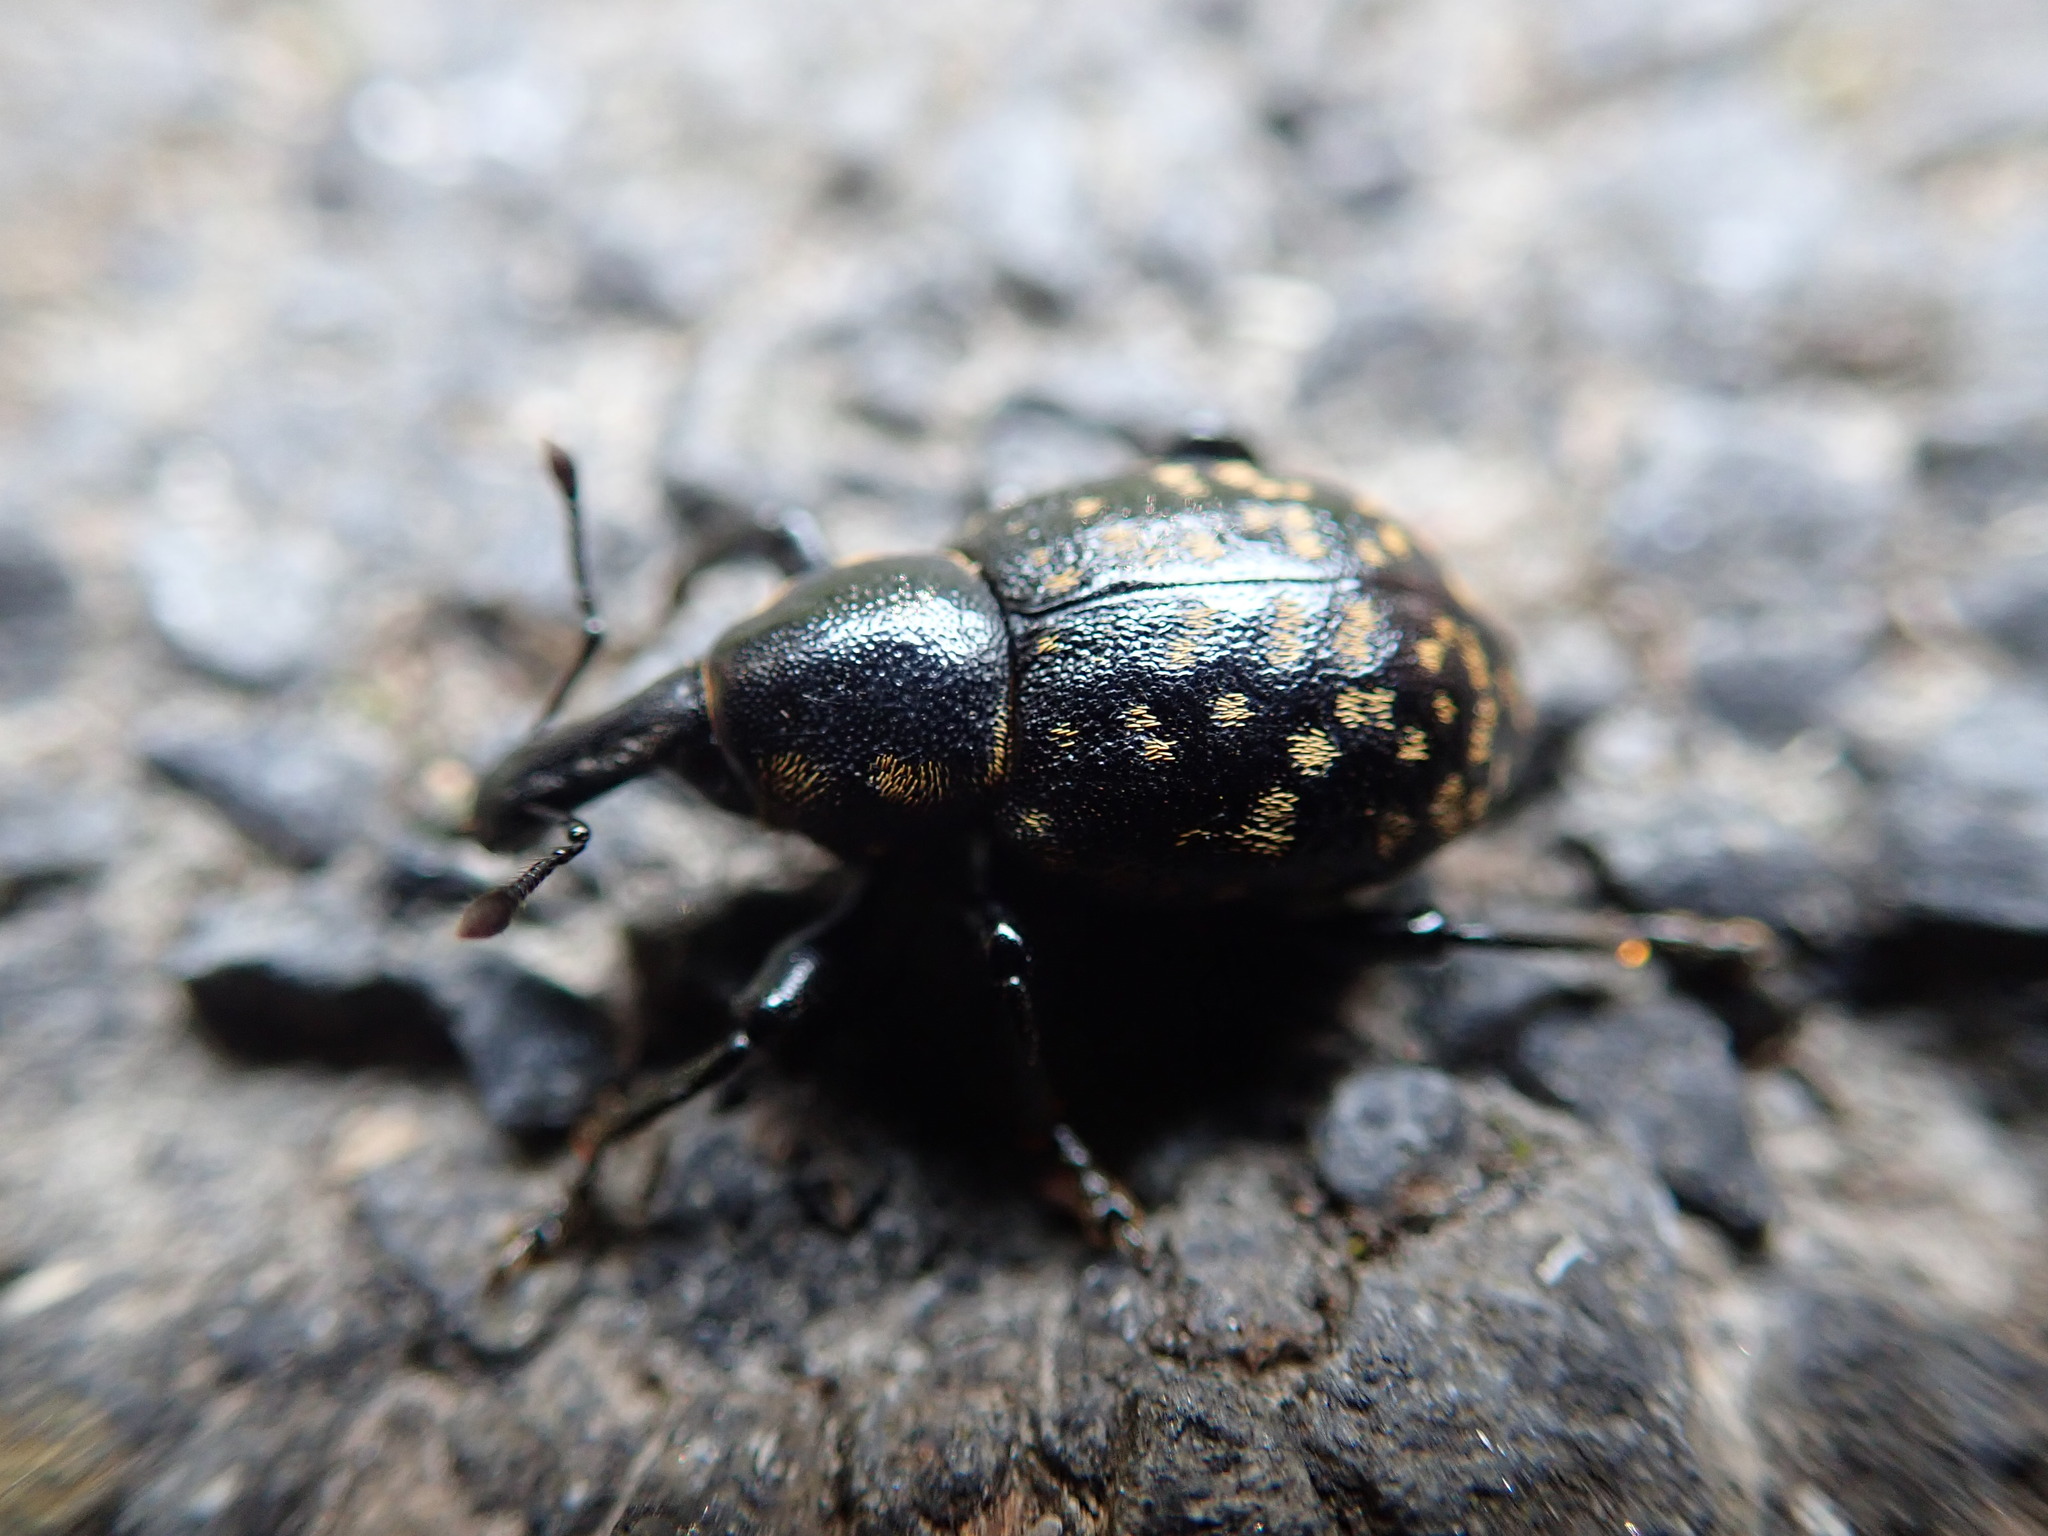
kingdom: Animalia
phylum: Arthropoda
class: Insecta
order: Coleoptera
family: Curculionidae
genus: Liparus
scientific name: Liparus germanus
